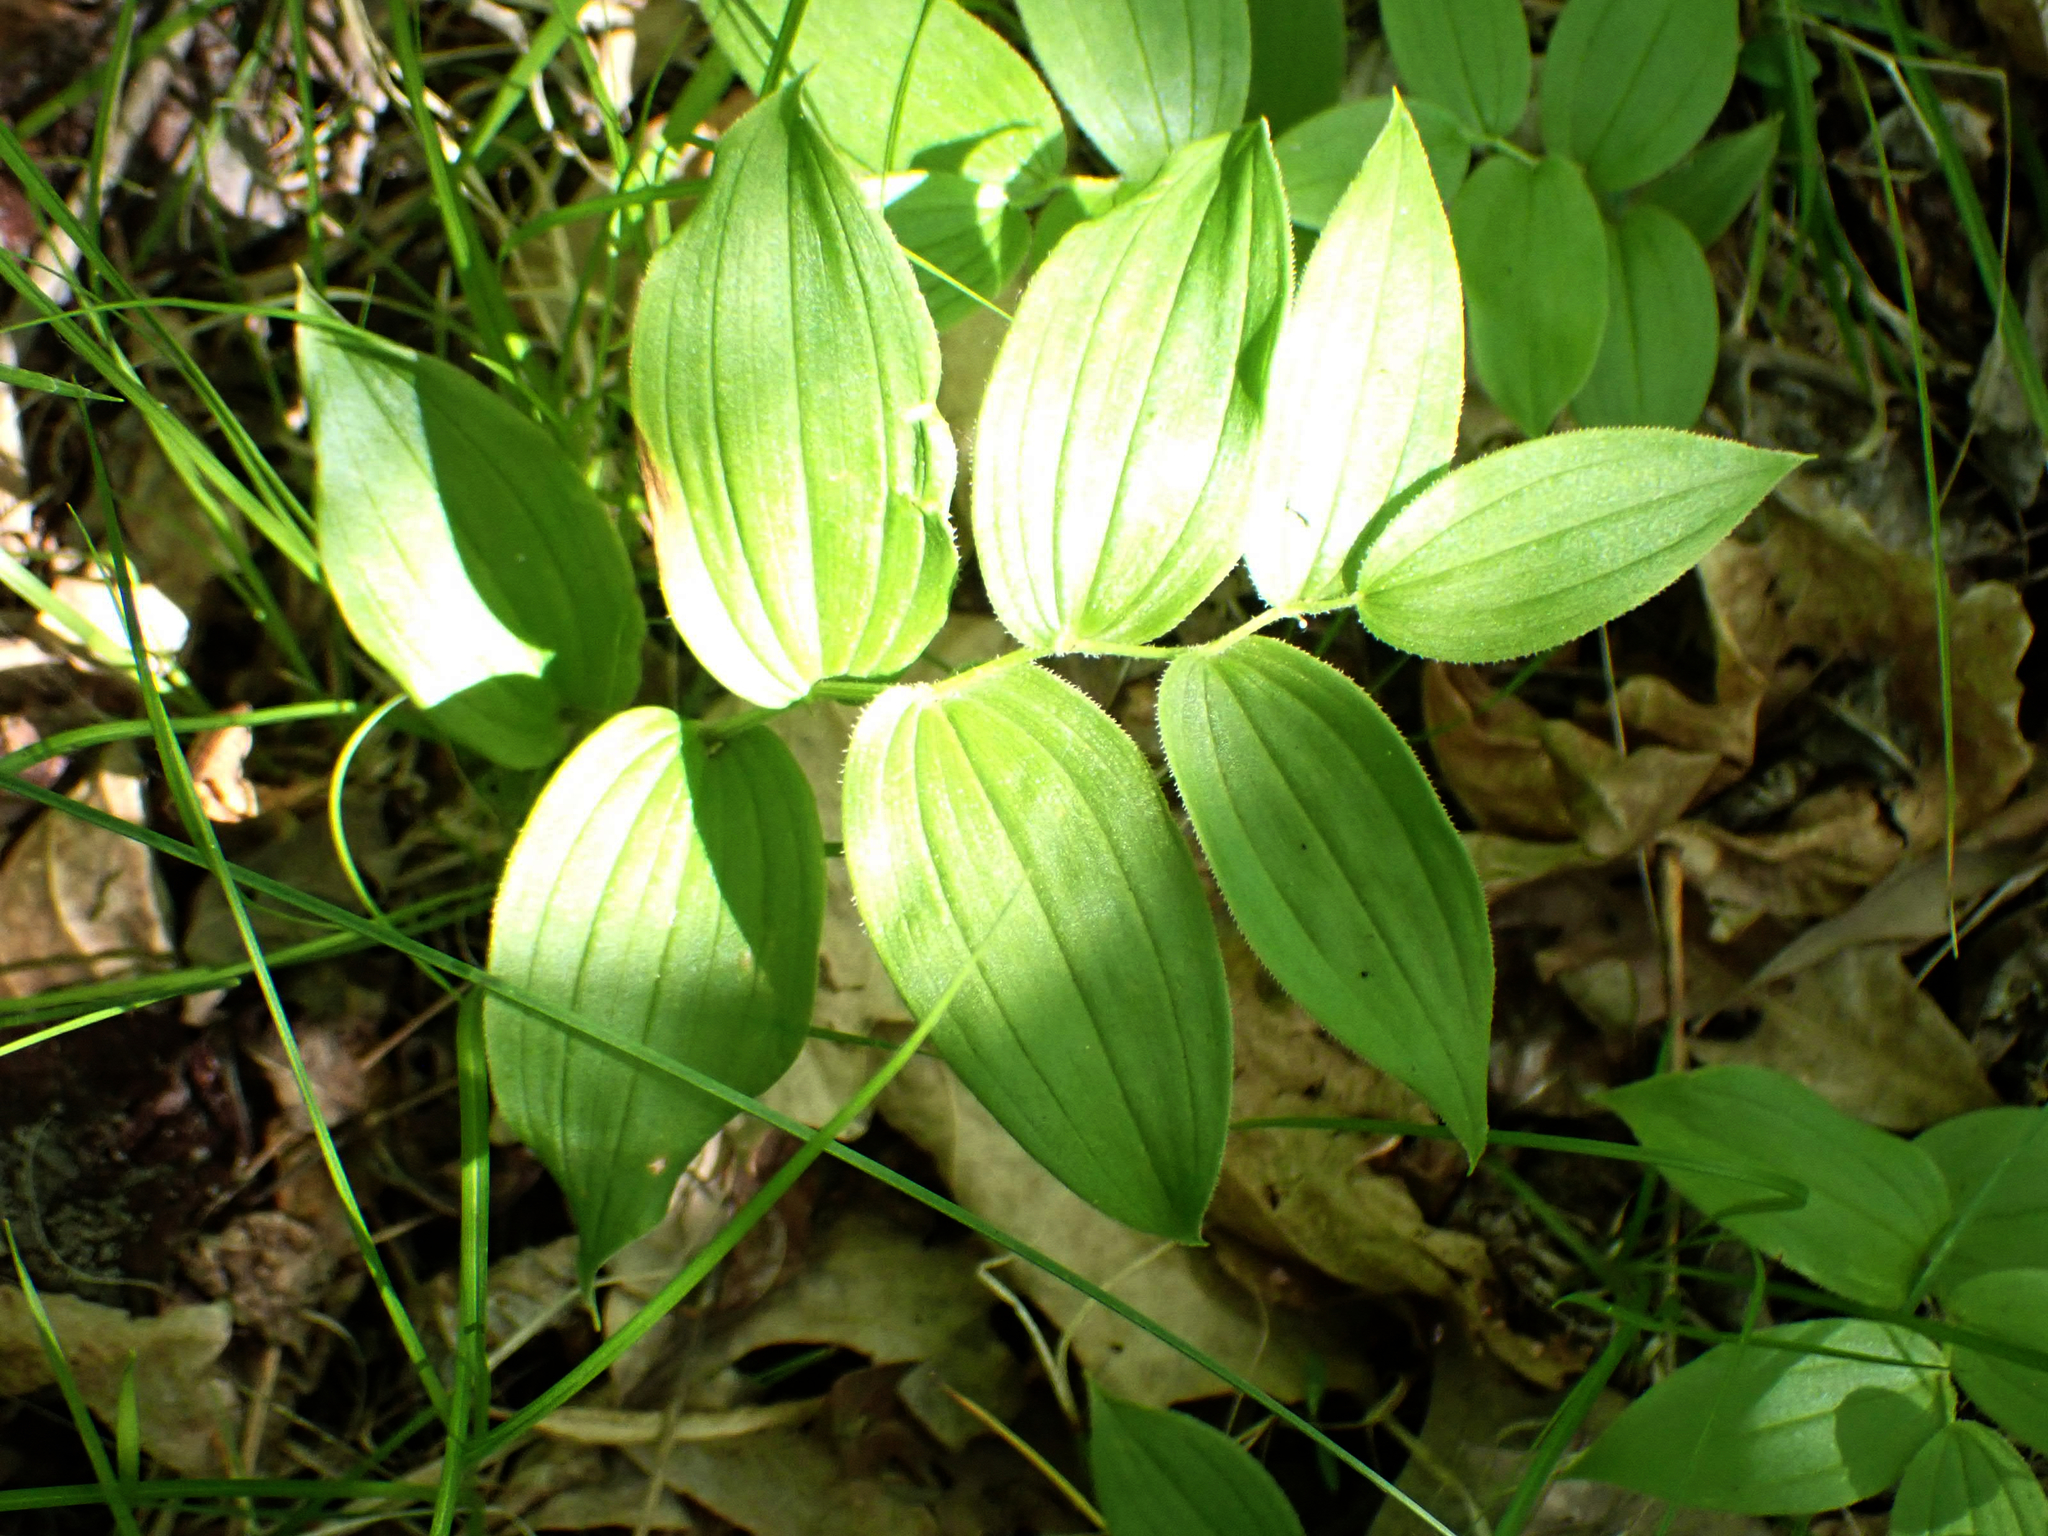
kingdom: Plantae
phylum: Tracheophyta
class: Liliopsida
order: Liliales
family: Liliaceae
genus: Streptopus
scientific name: Streptopus lanceolatus
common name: Rose mandarin
